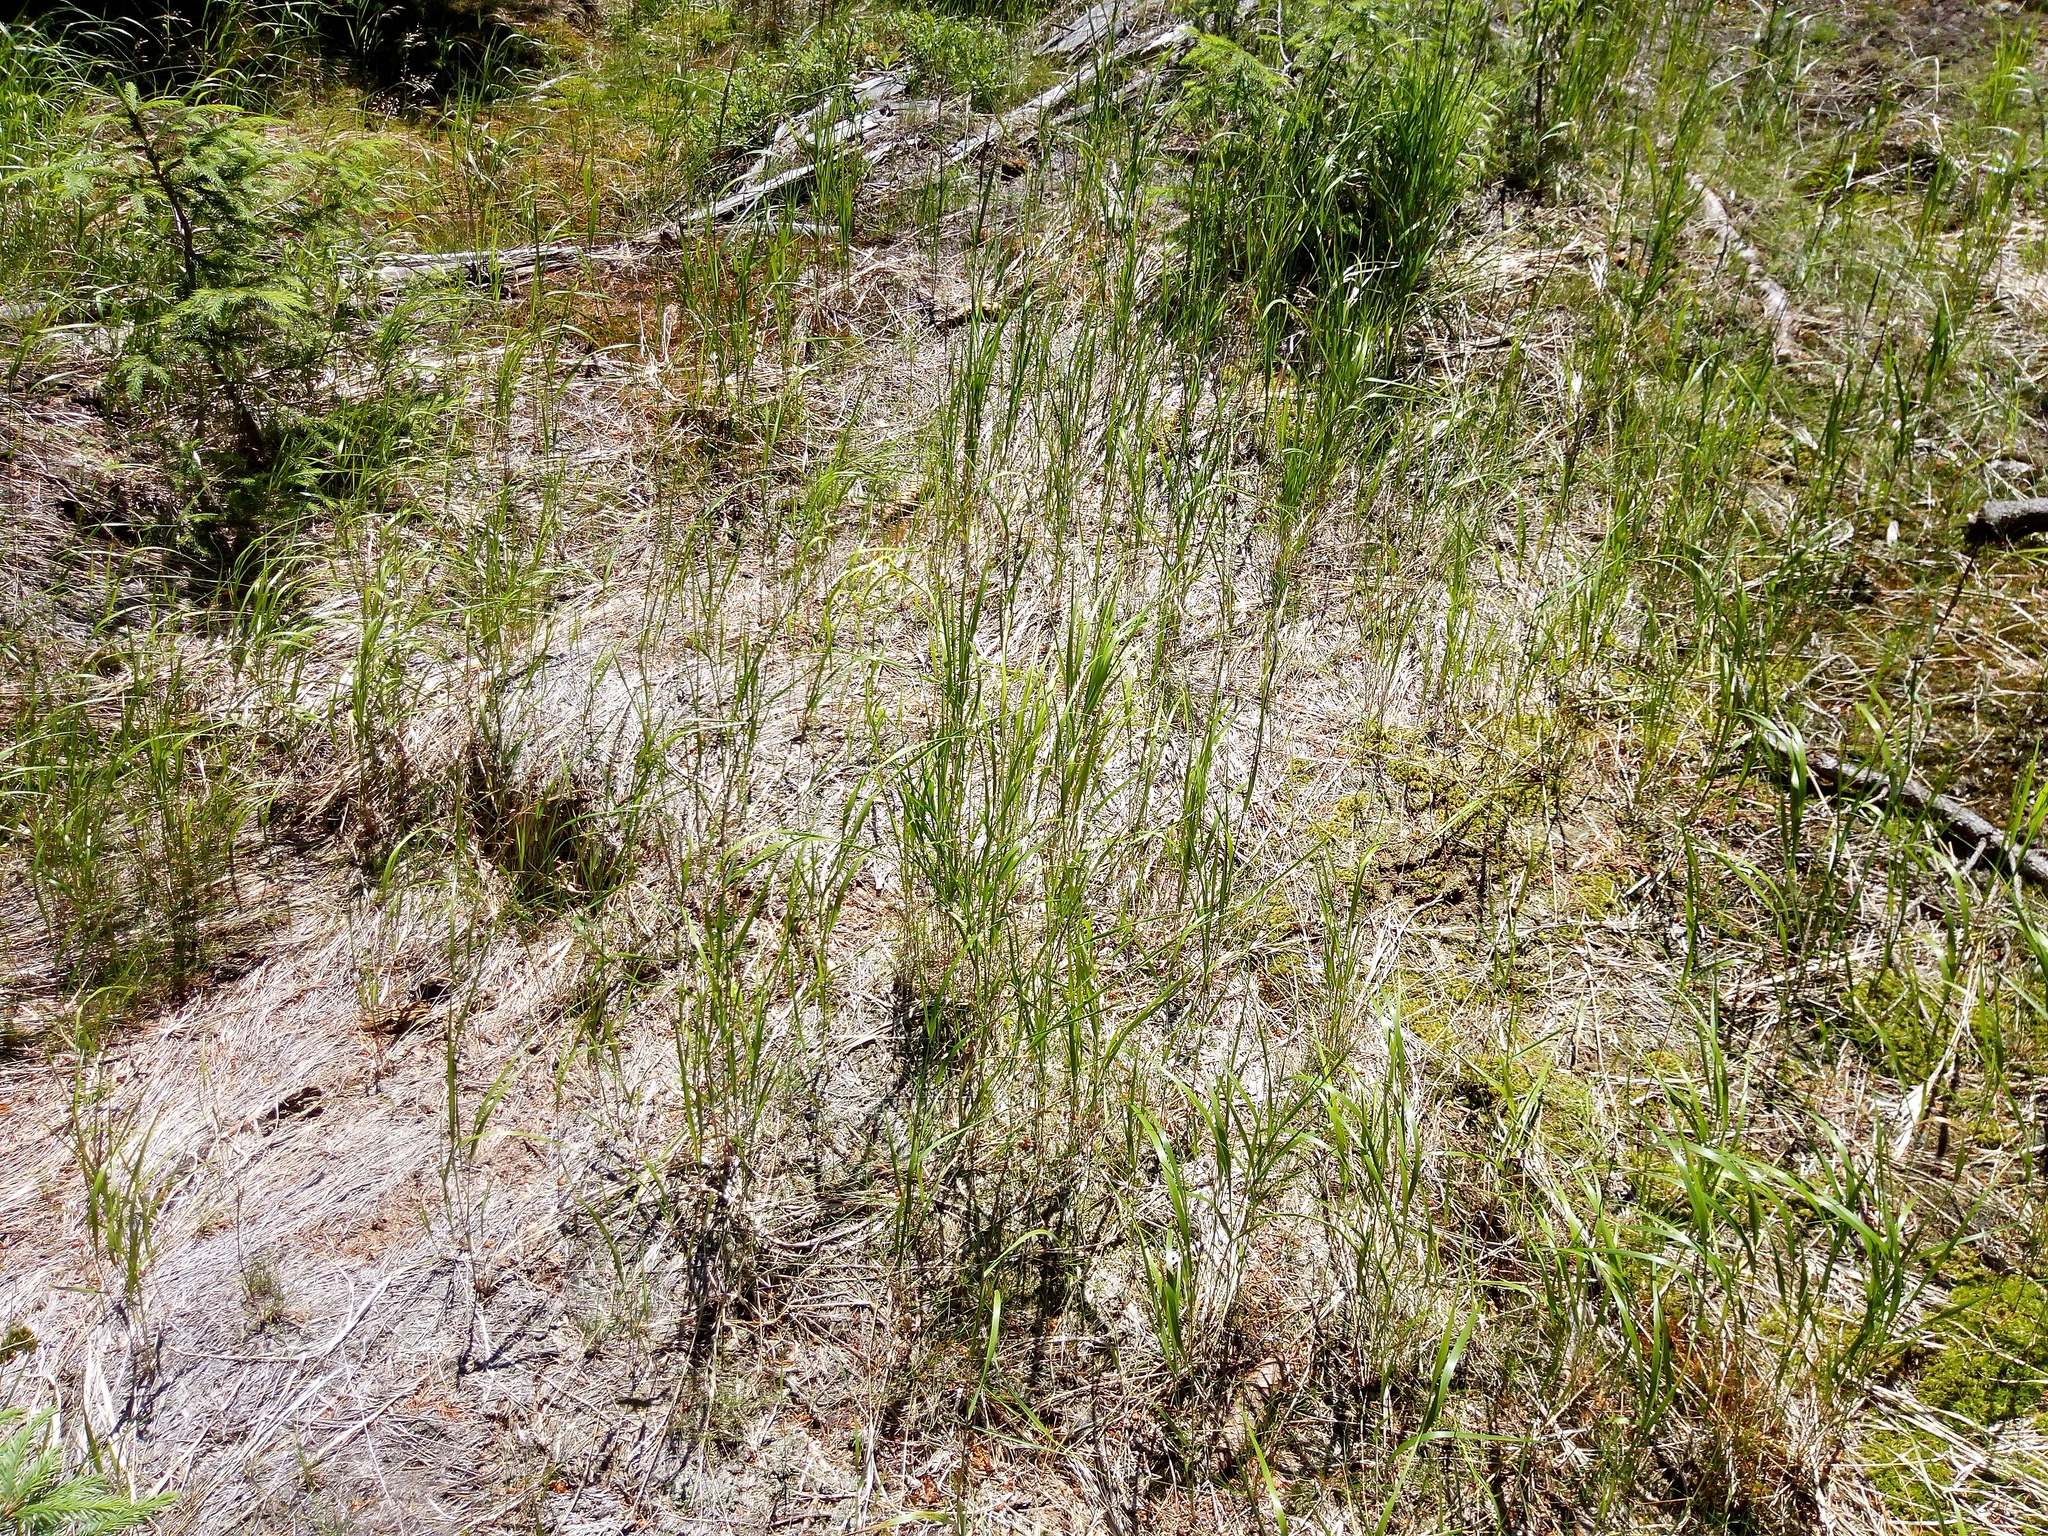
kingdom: Plantae
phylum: Tracheophyta
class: Liliopsida
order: Poales
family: Poaceae
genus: Calamagrostis
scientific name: Calamagrostis villosa
